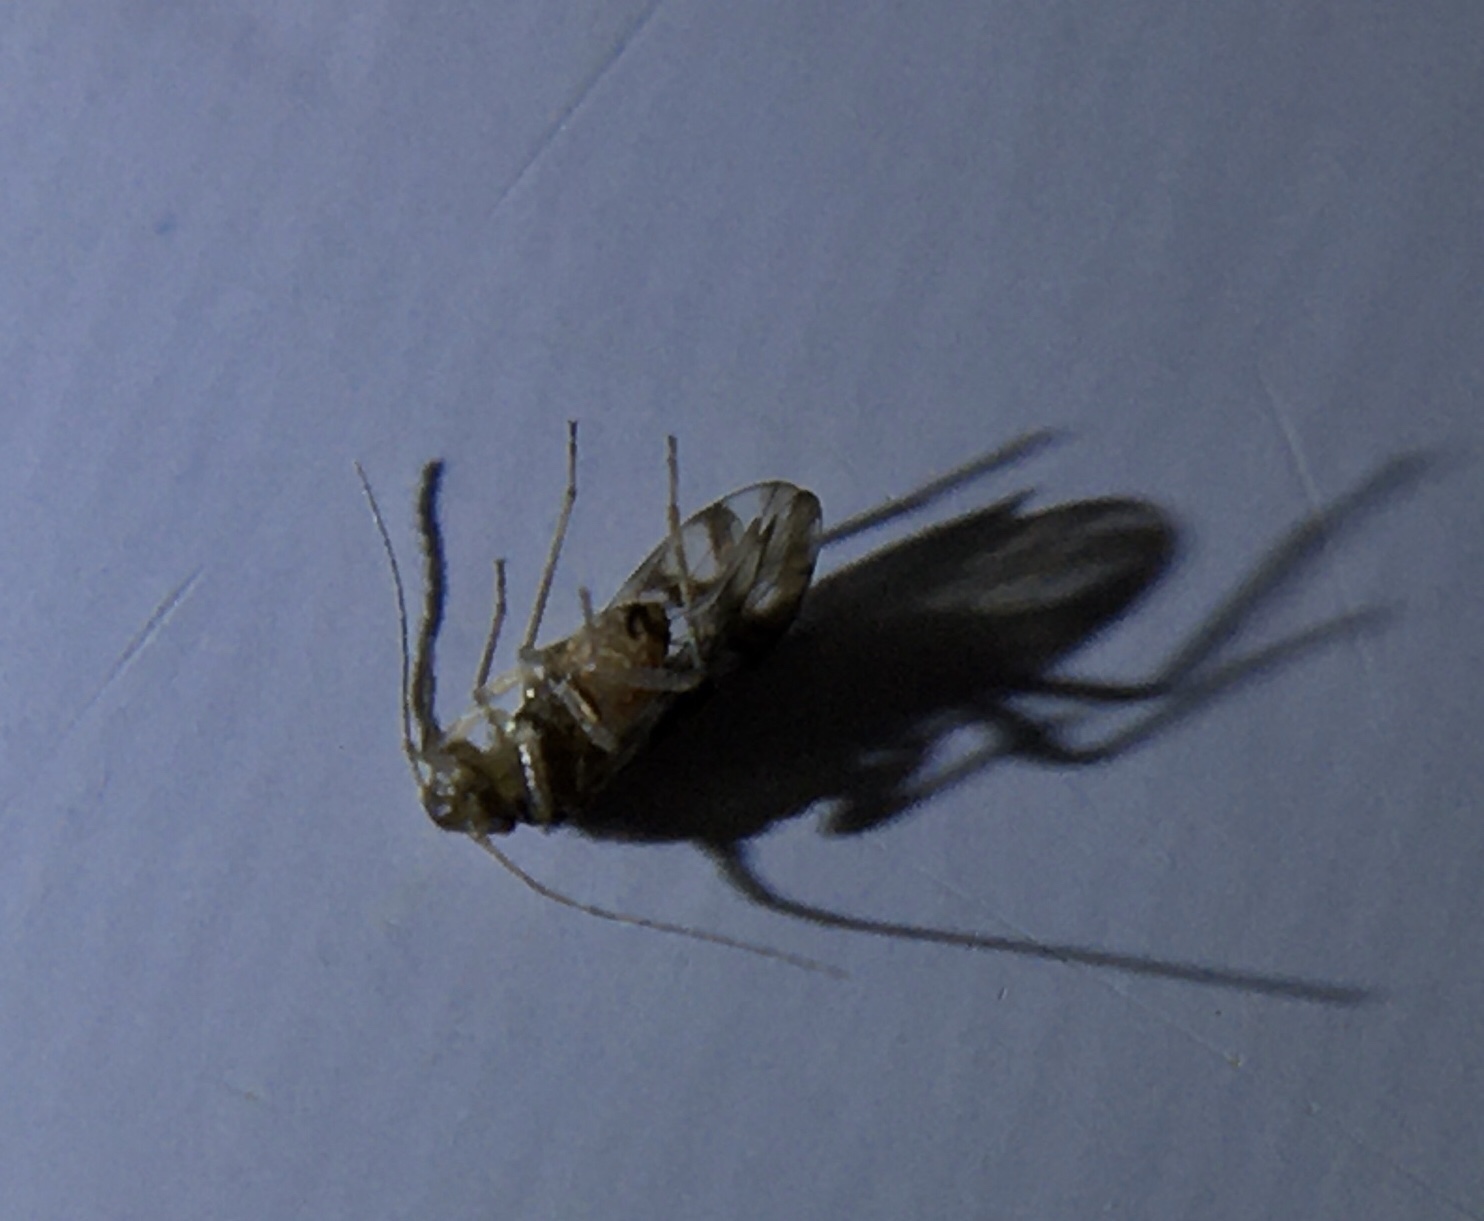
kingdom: Animalia
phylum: Arthropoda
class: Insecta
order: Psocodea
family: Stenopsocidae
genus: Graphopsocus
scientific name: Graphopsocus cruciatus
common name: Lizard bark louse
